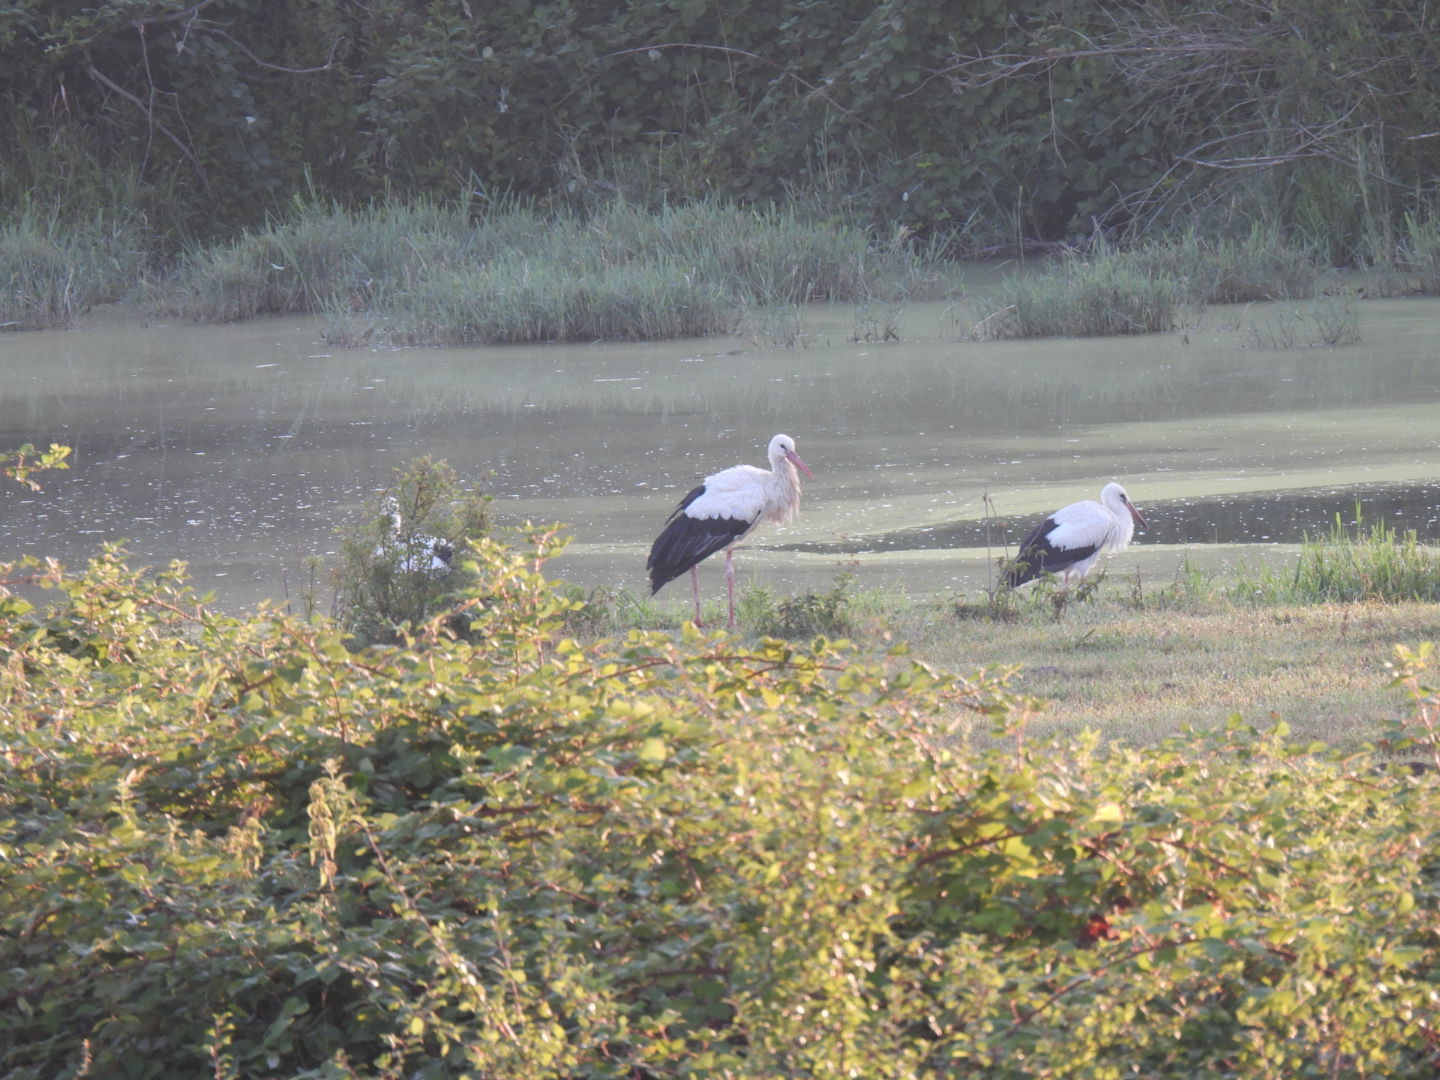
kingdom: Animalia
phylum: Chordata
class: Aves
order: Ciconiiformes
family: Ciconiidae
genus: Ciconia
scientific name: Ciconia ciconia
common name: White stork
